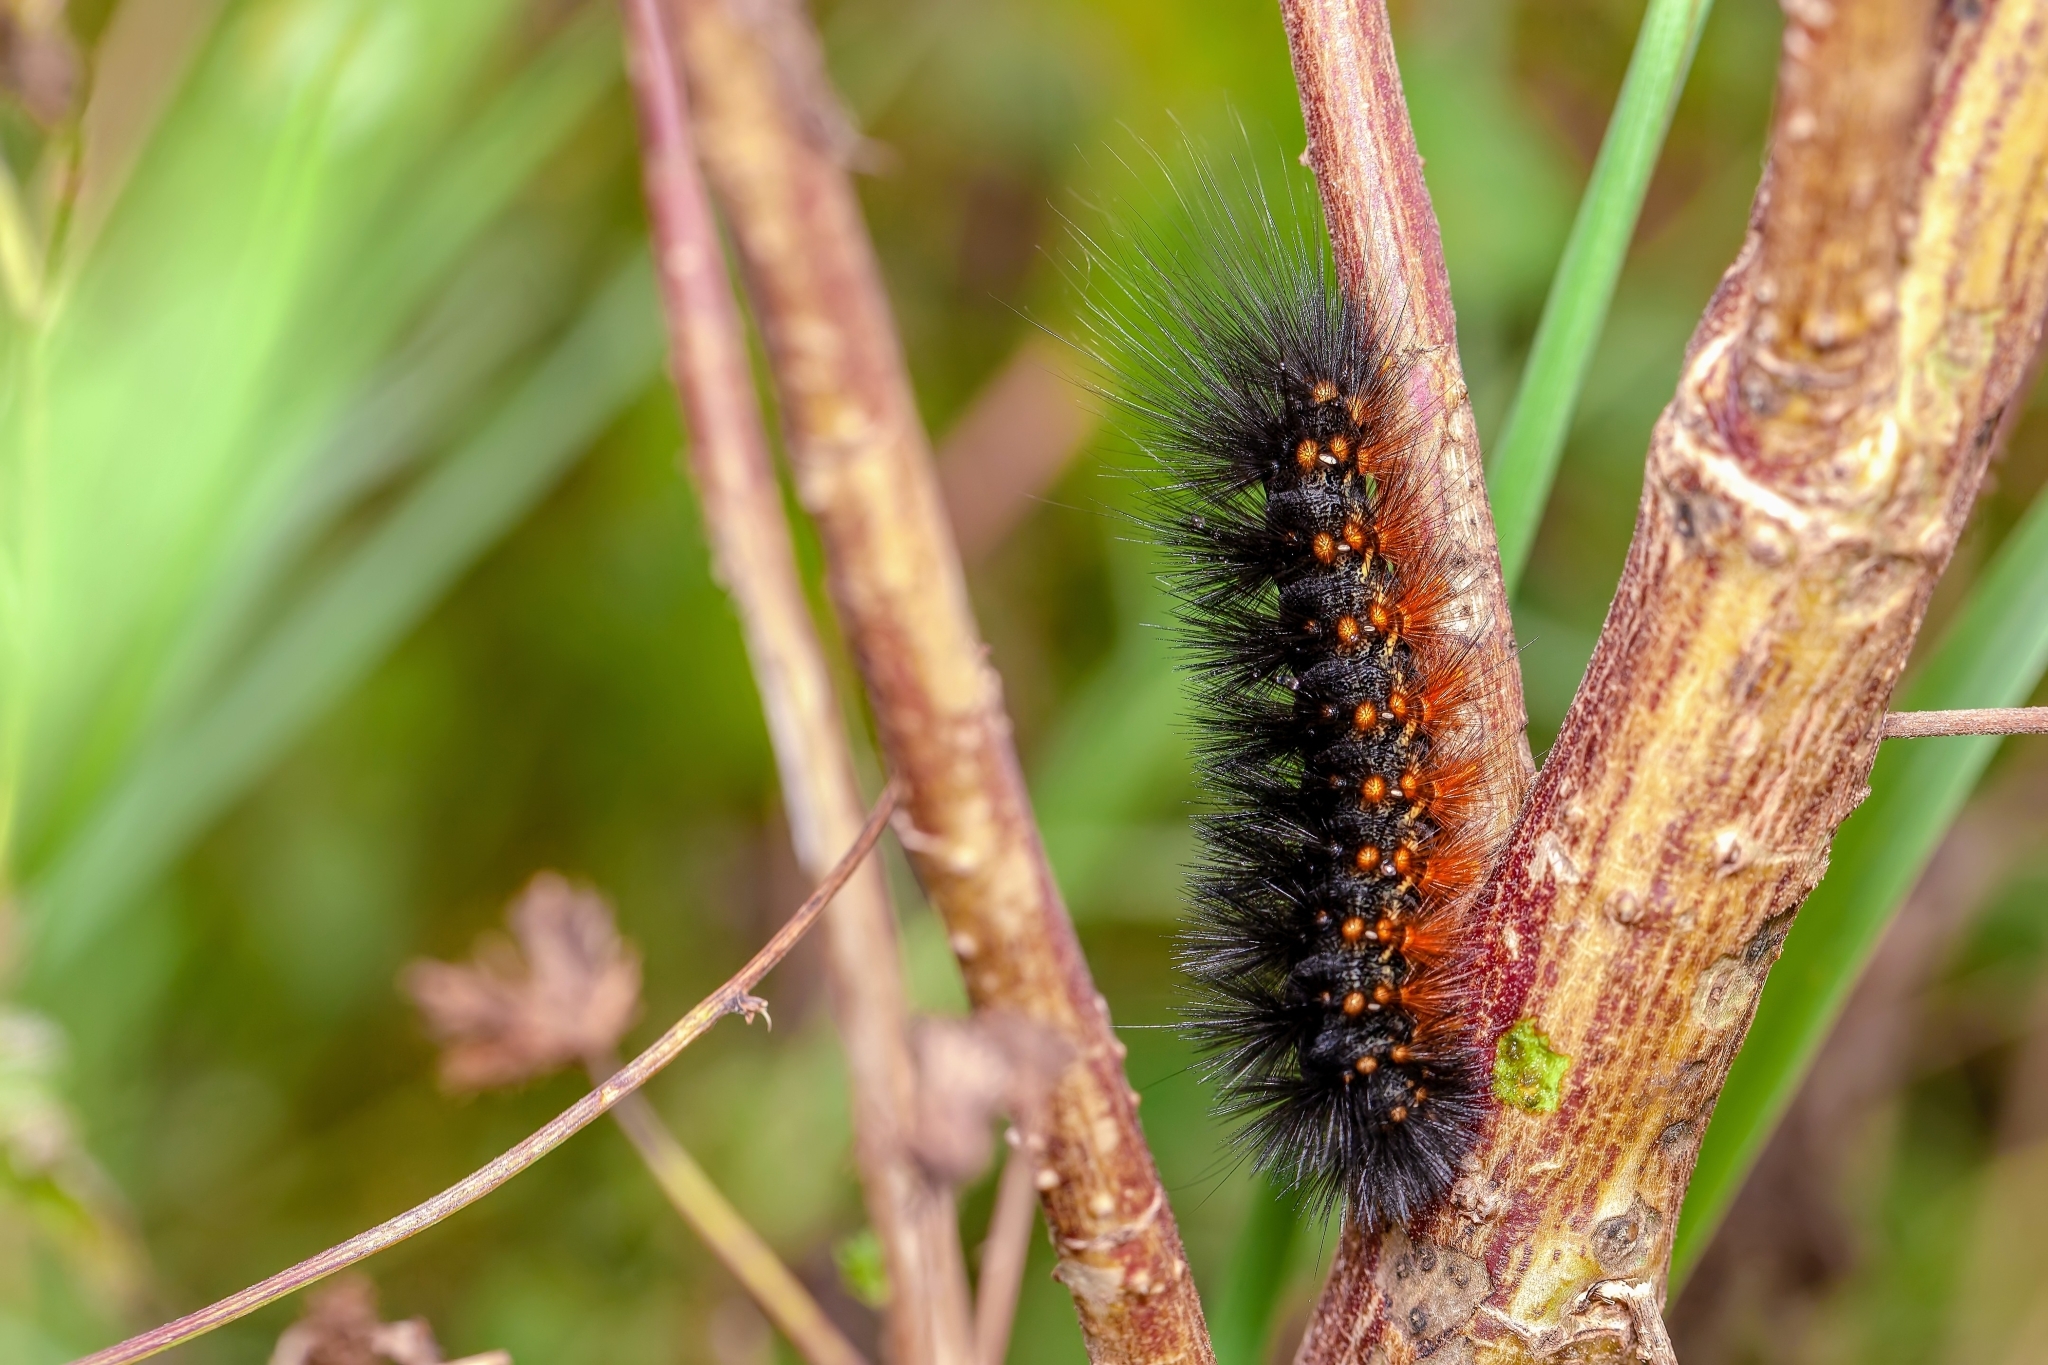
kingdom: Animalia
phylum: Arthropoda
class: Insecta
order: Lepidoptera
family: Erebidae
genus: Estigmene
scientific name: Estigmene acrea
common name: Salt marsh moth
